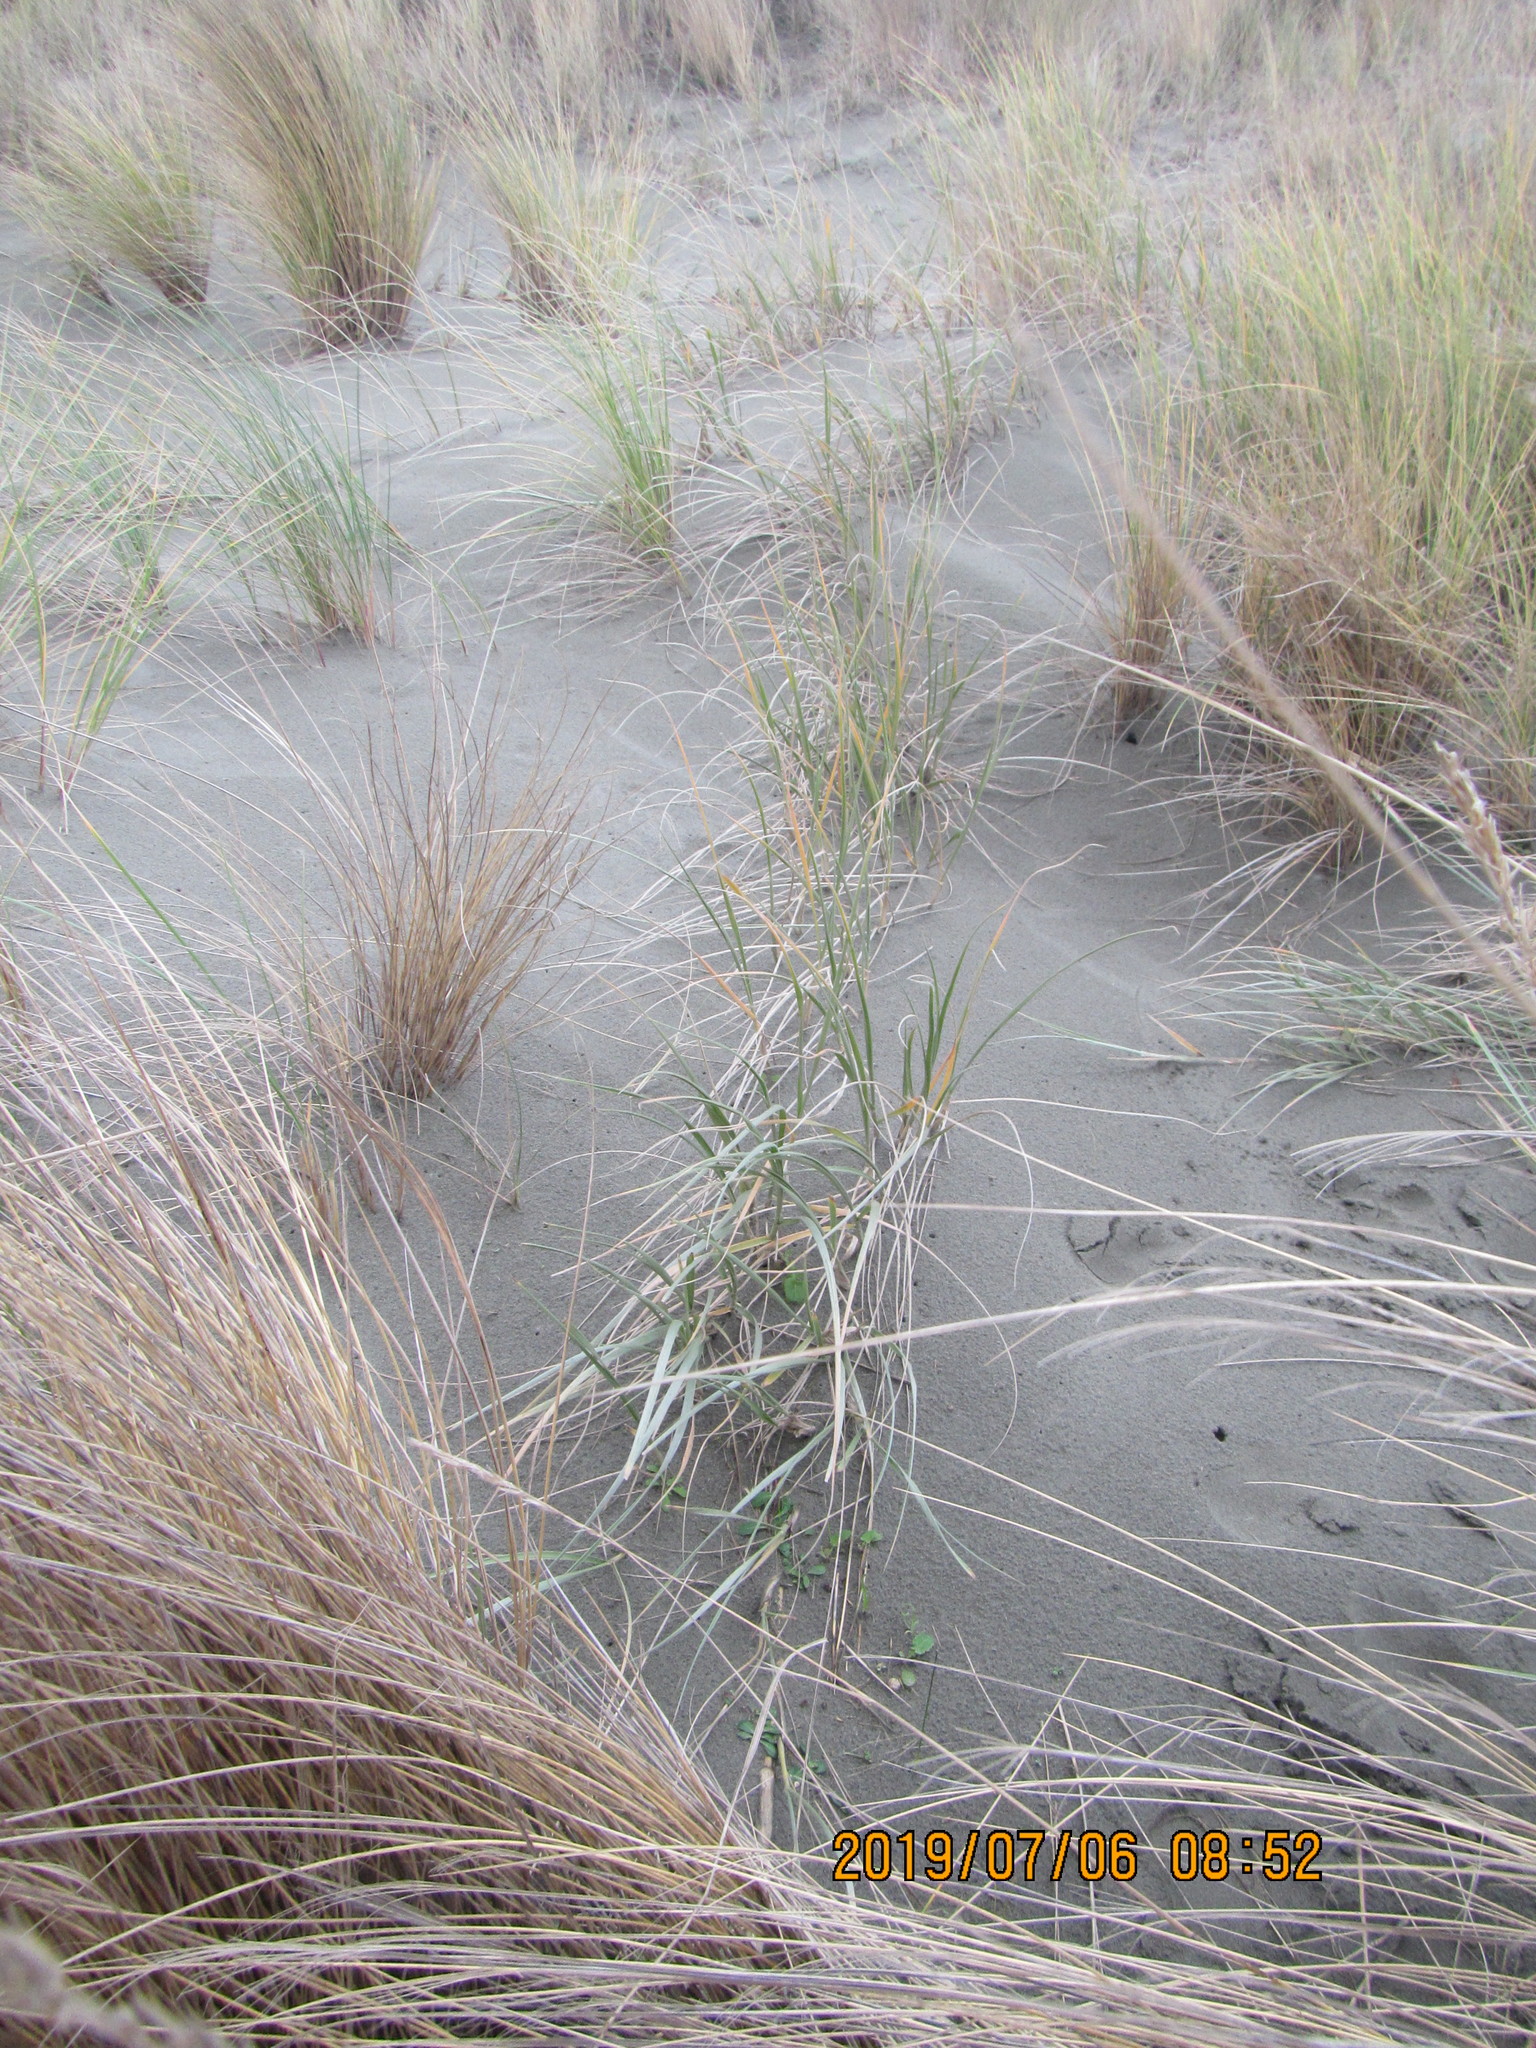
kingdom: Plantae
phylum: Tracheophyta
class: Liliopsida
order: Poales
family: Poaceae
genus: Spinifex
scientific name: Spinifex sericeus
